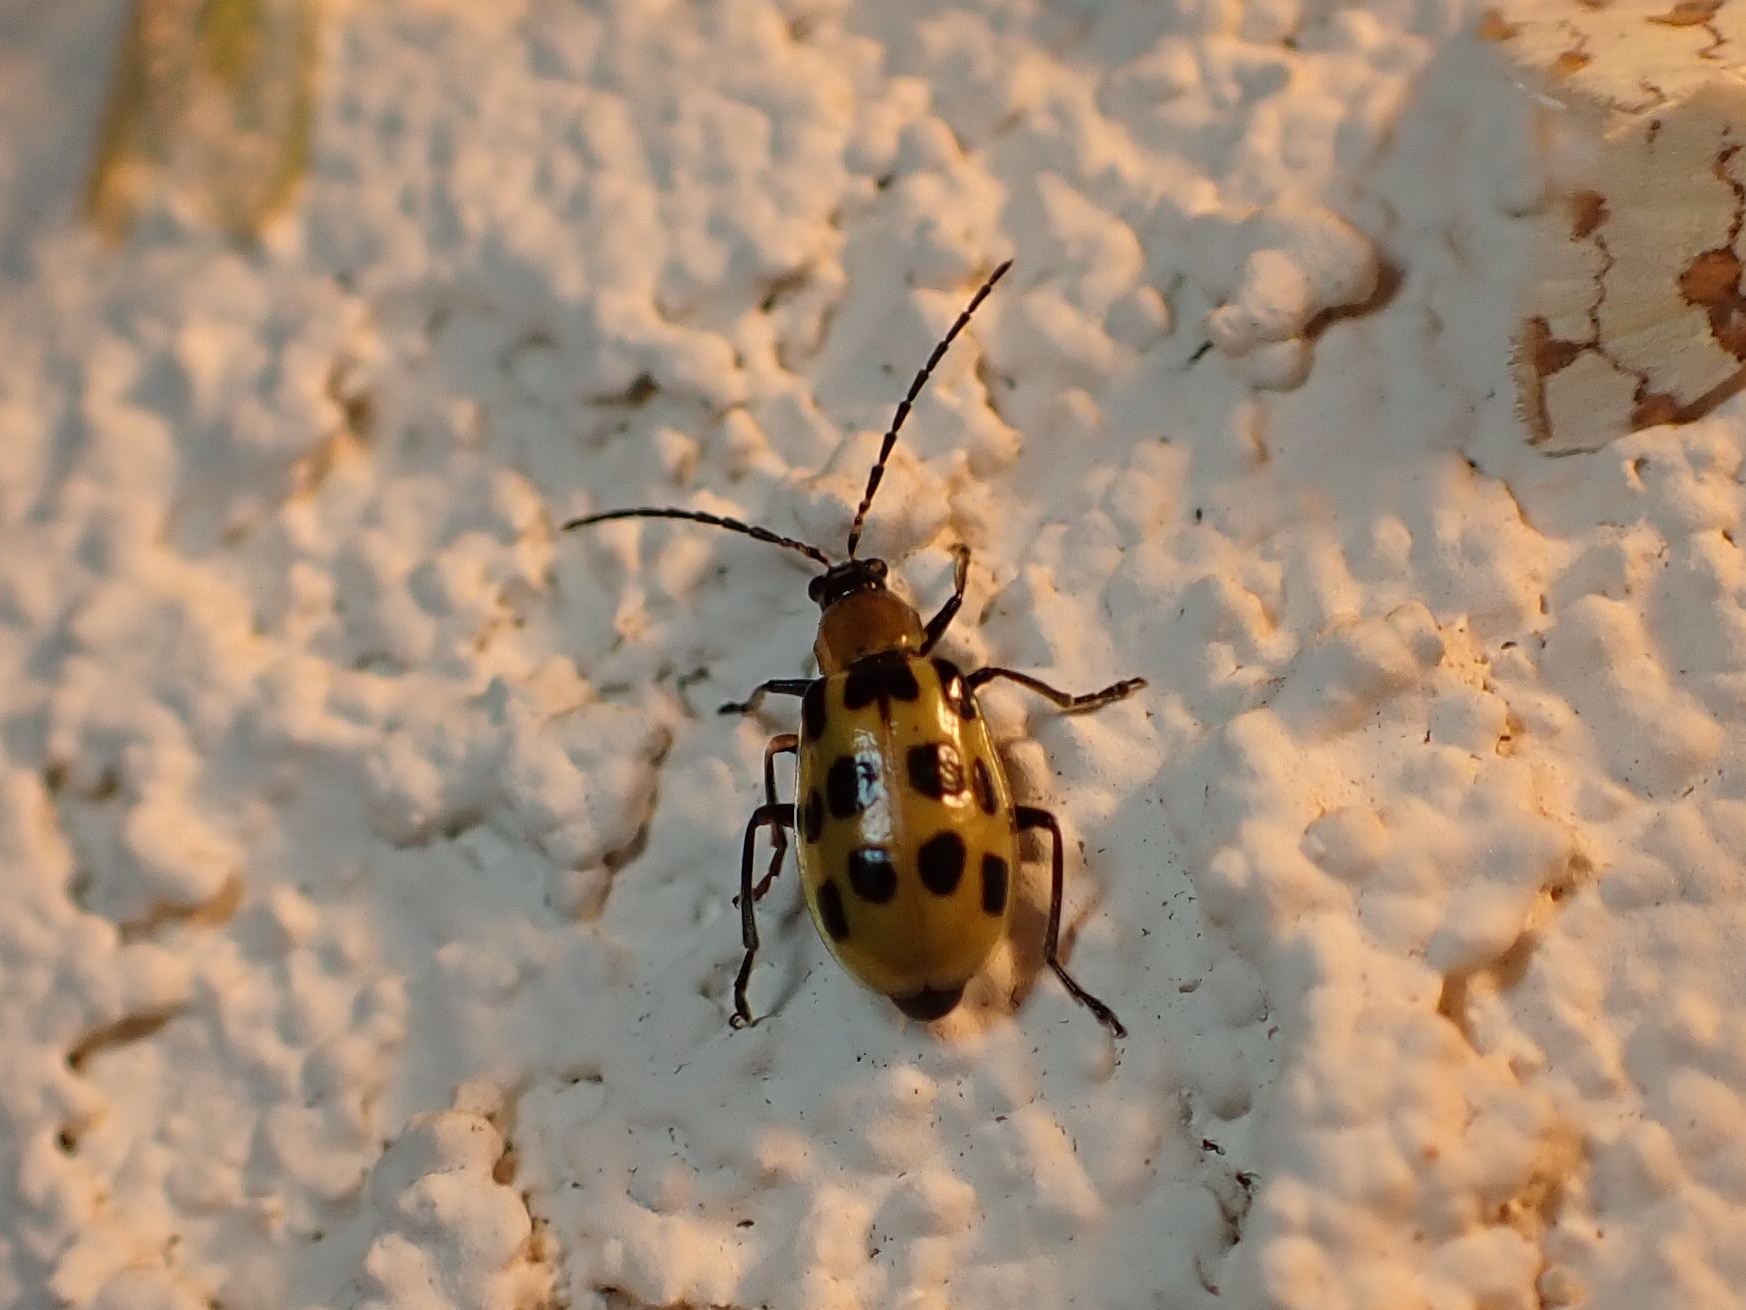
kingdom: Animalia
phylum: Arthropoda
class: Insecta
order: Coleoptera
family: Chrysomelidae
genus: Diabrotica
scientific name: Diabrotica undecimpunctata
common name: Spotted cucumber beetle
